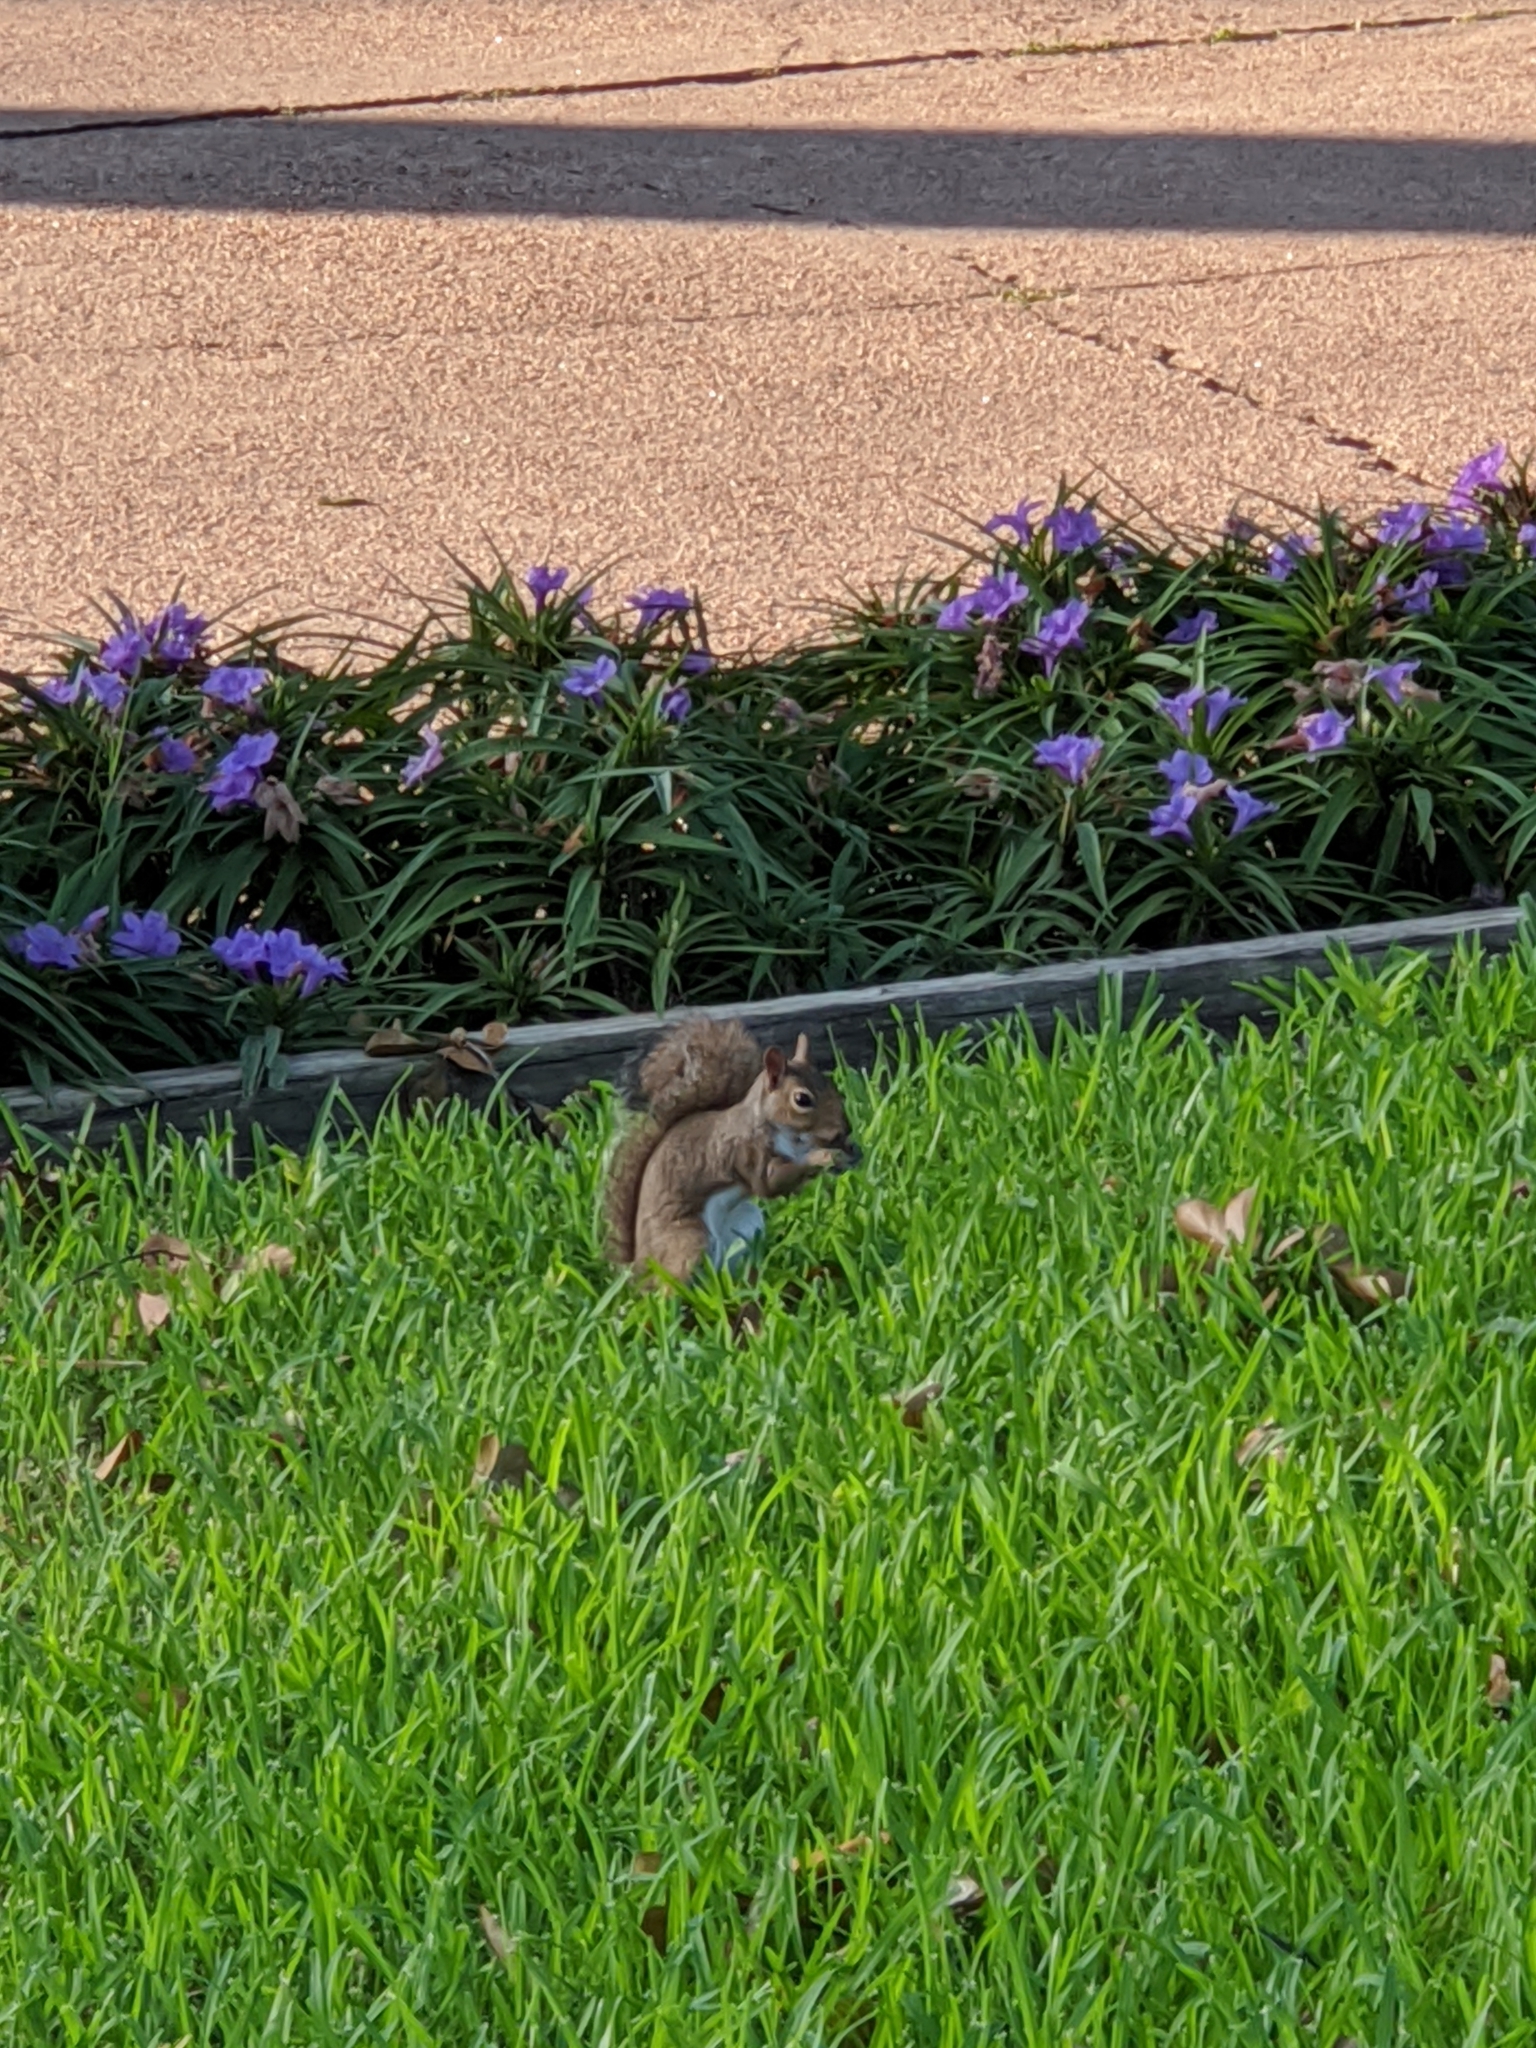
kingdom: Animalia
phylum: Chordata
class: Mammalia
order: Rodentia
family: Sciuridae
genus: Sciurus
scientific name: Sciurus carolinensis
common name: Eastern gray squirrel
